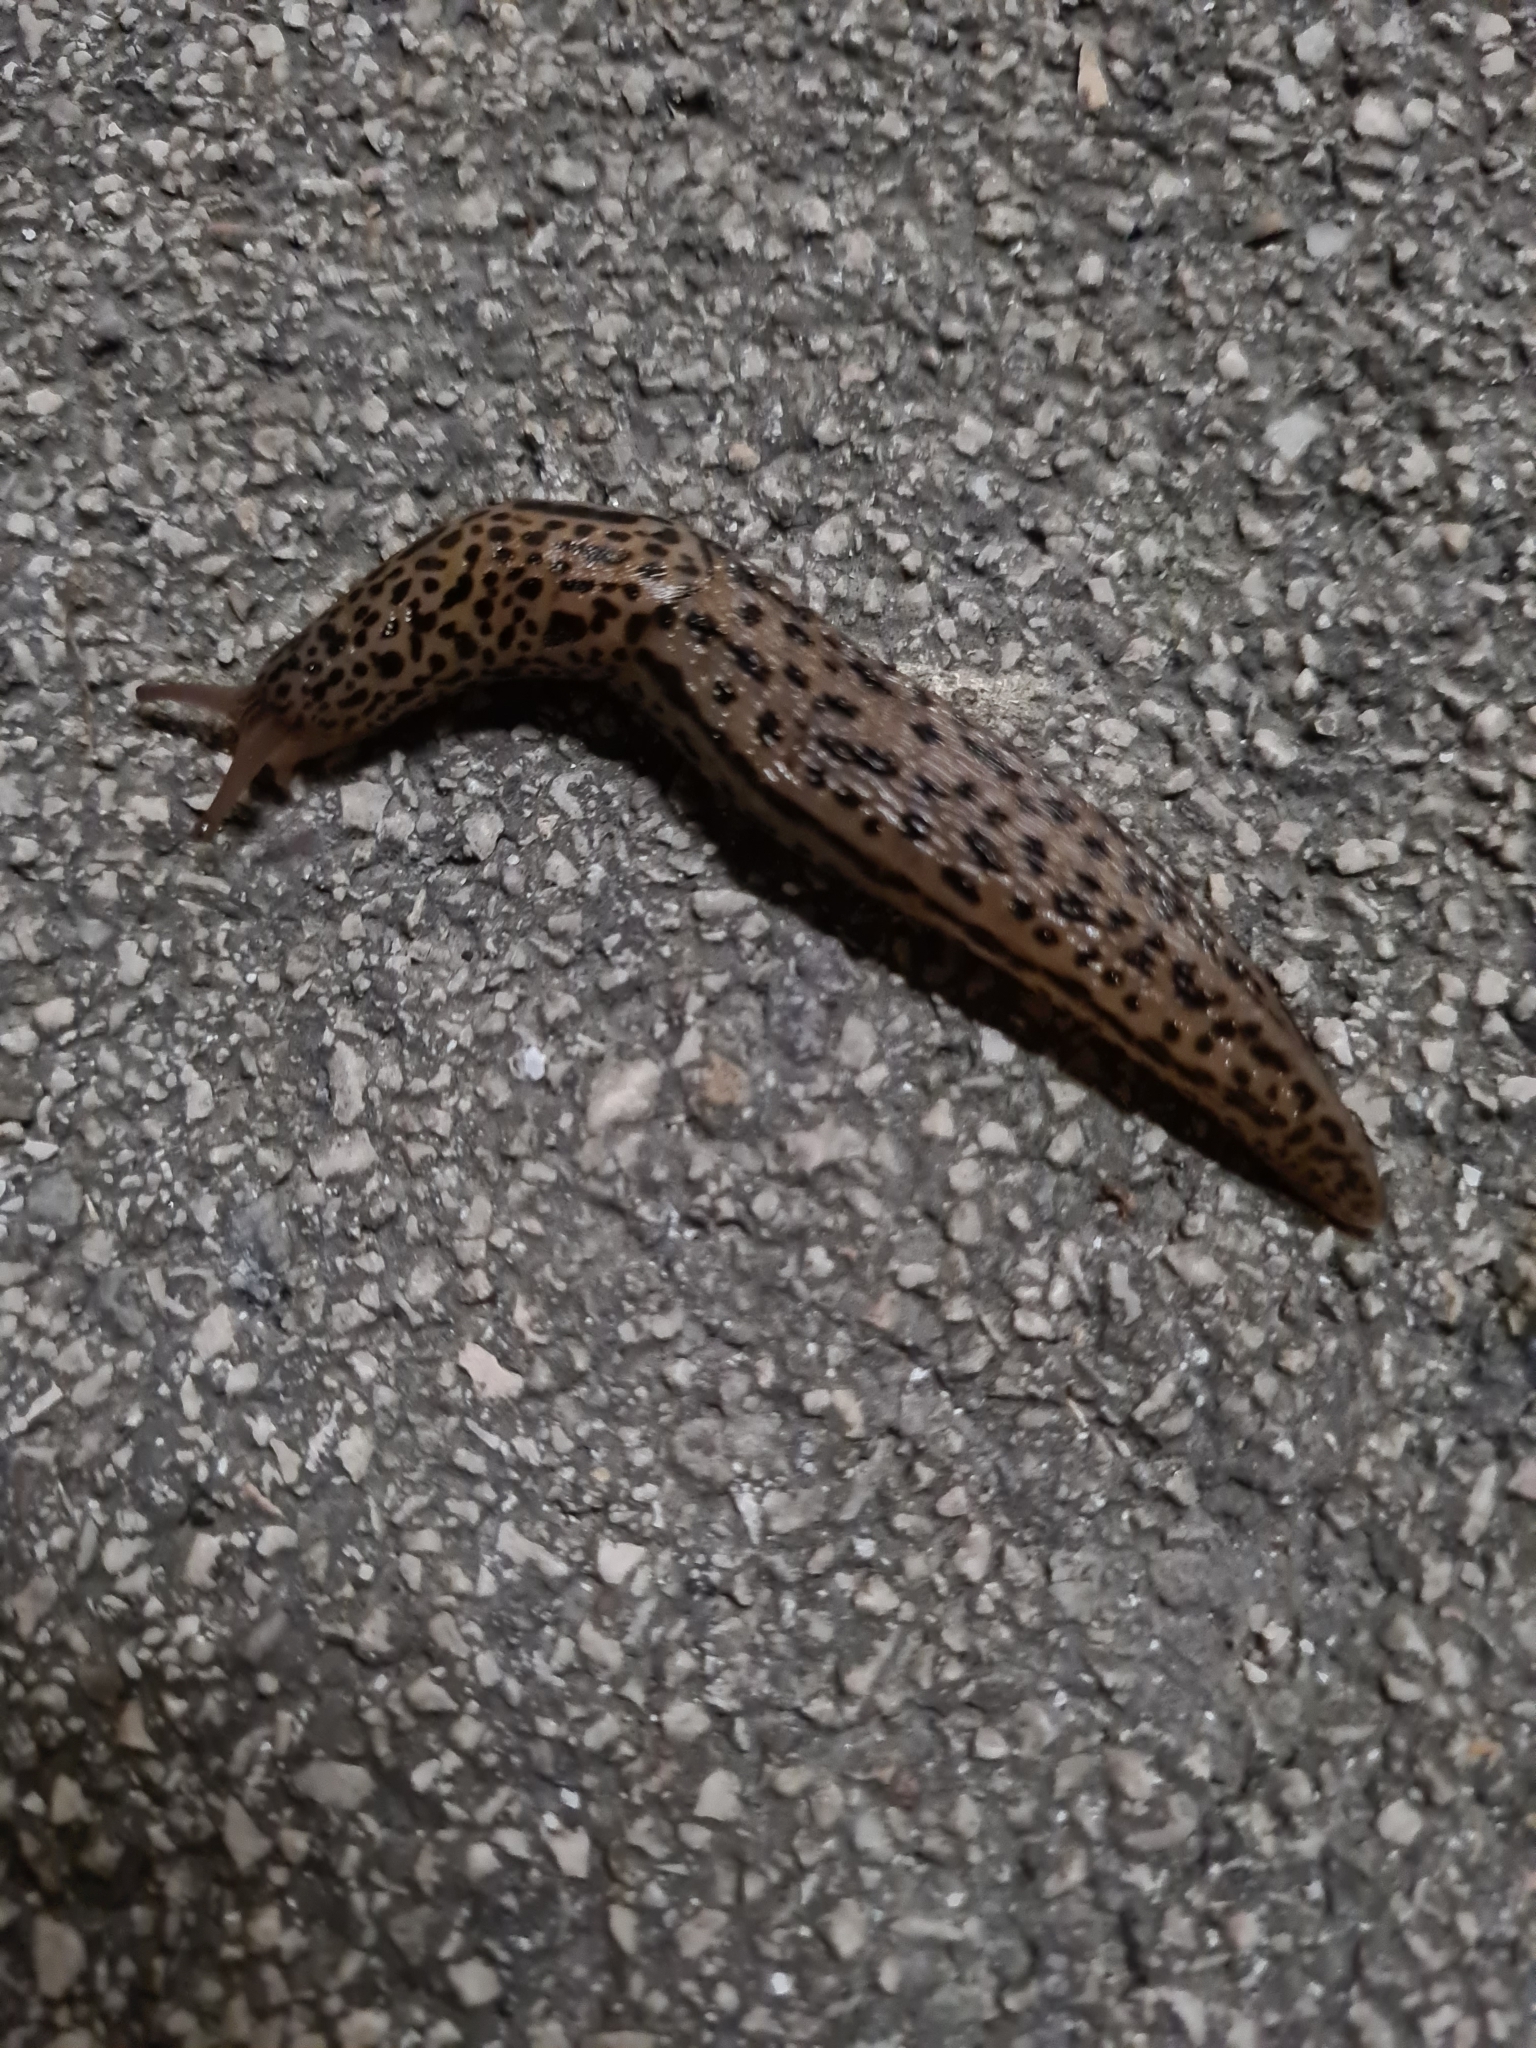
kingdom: Animalia
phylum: Mollusca
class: Gastropoda
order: Stylommatophora
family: Limacidae
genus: Limax
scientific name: Limax maximus
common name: Great grey slug
